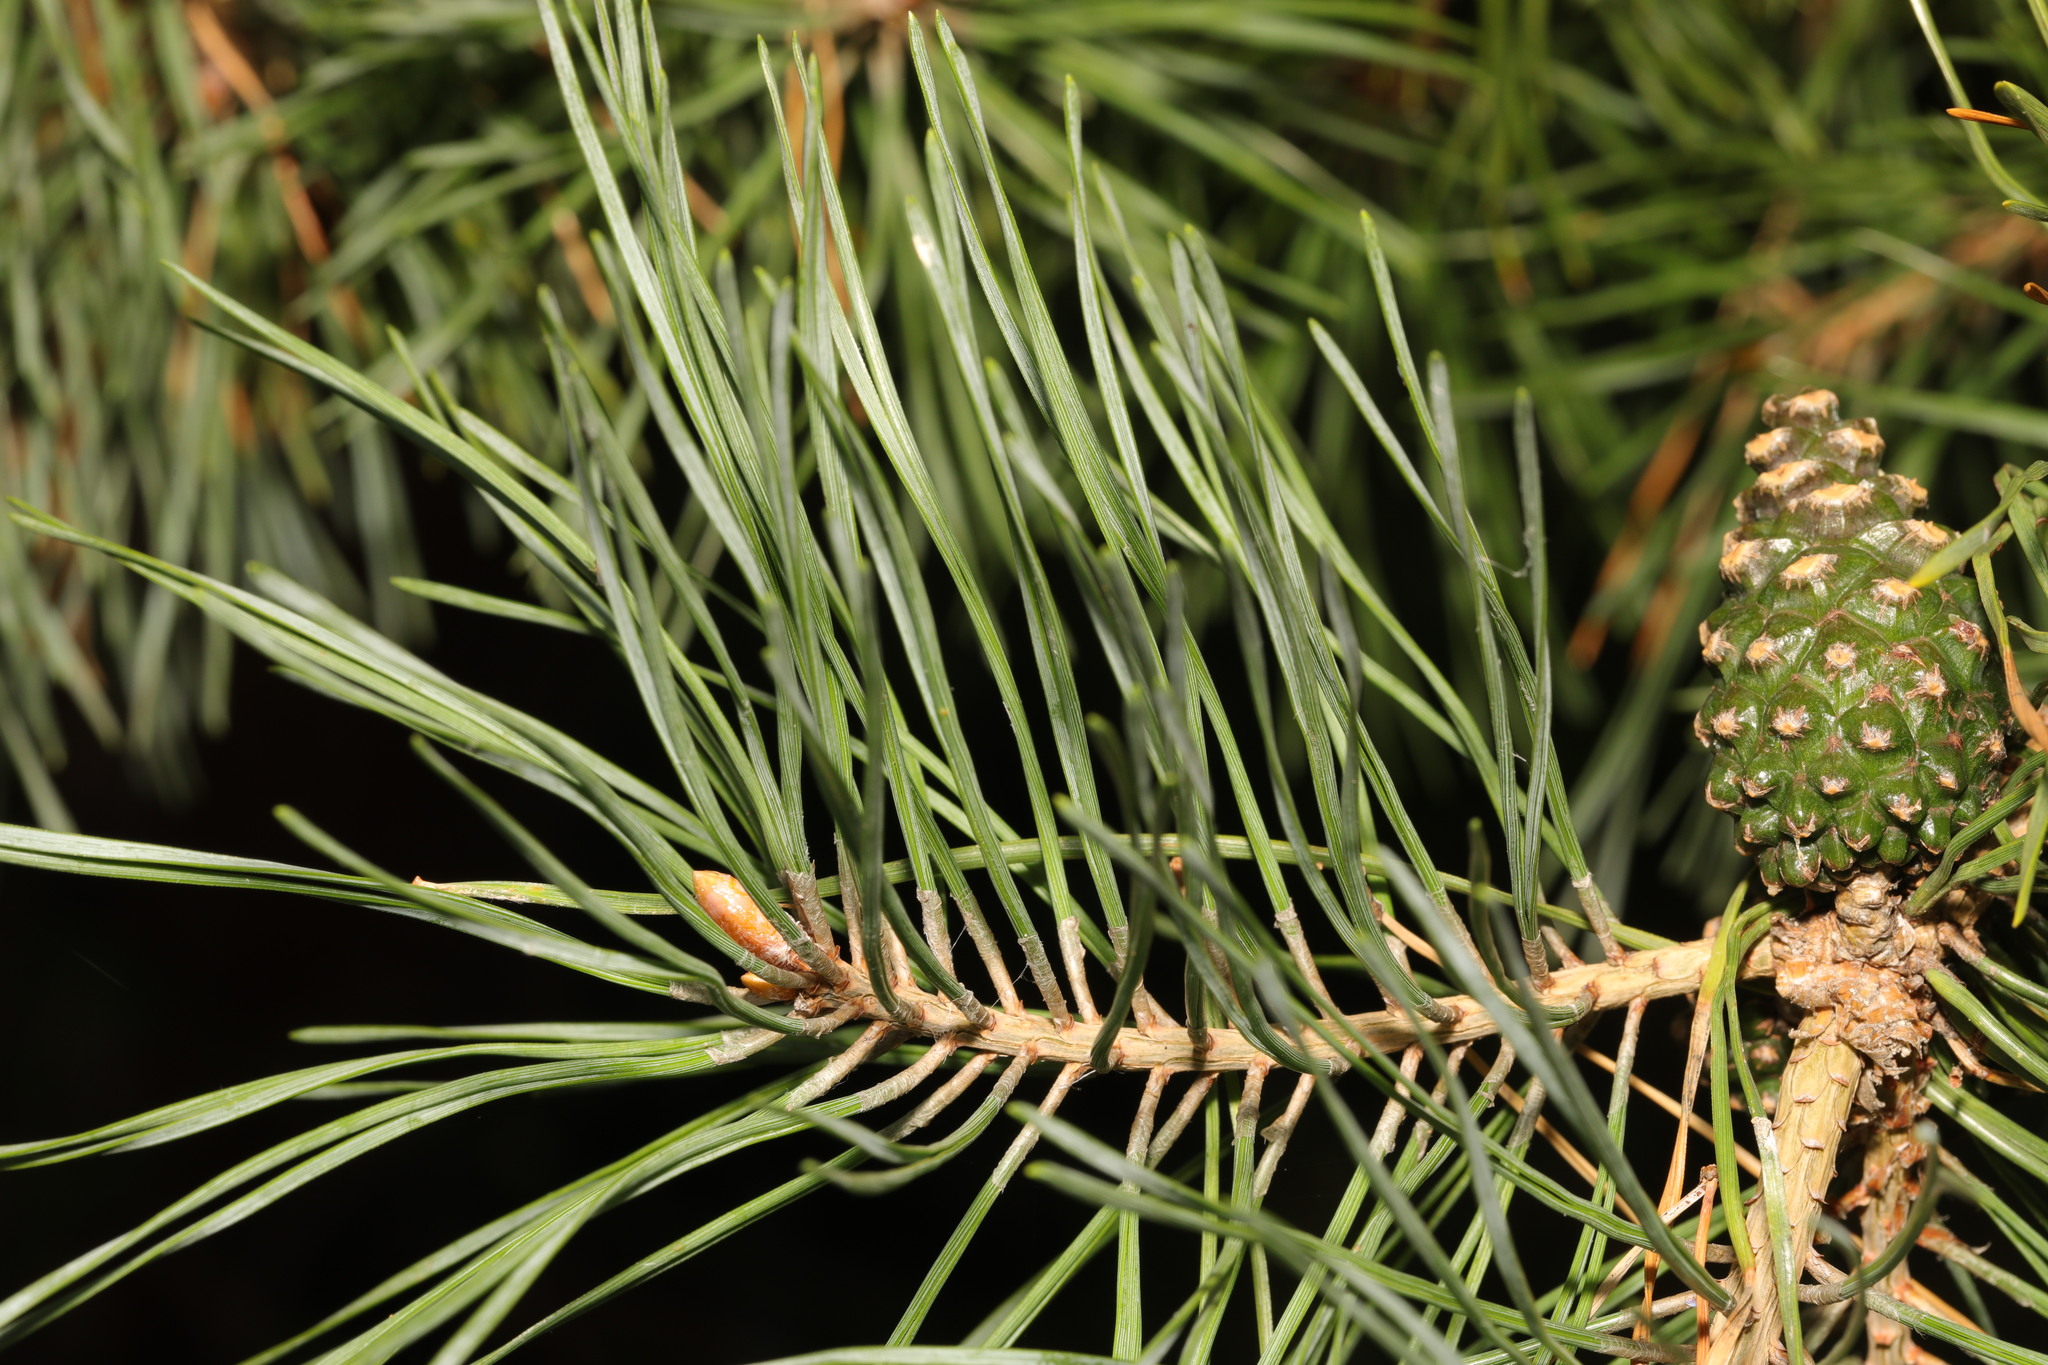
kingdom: Plantae
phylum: Tracheophyta
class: Pinopsida
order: Pinales
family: Pinaceae
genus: Pinus
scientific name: Pinus sylvestris
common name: Scots pine
